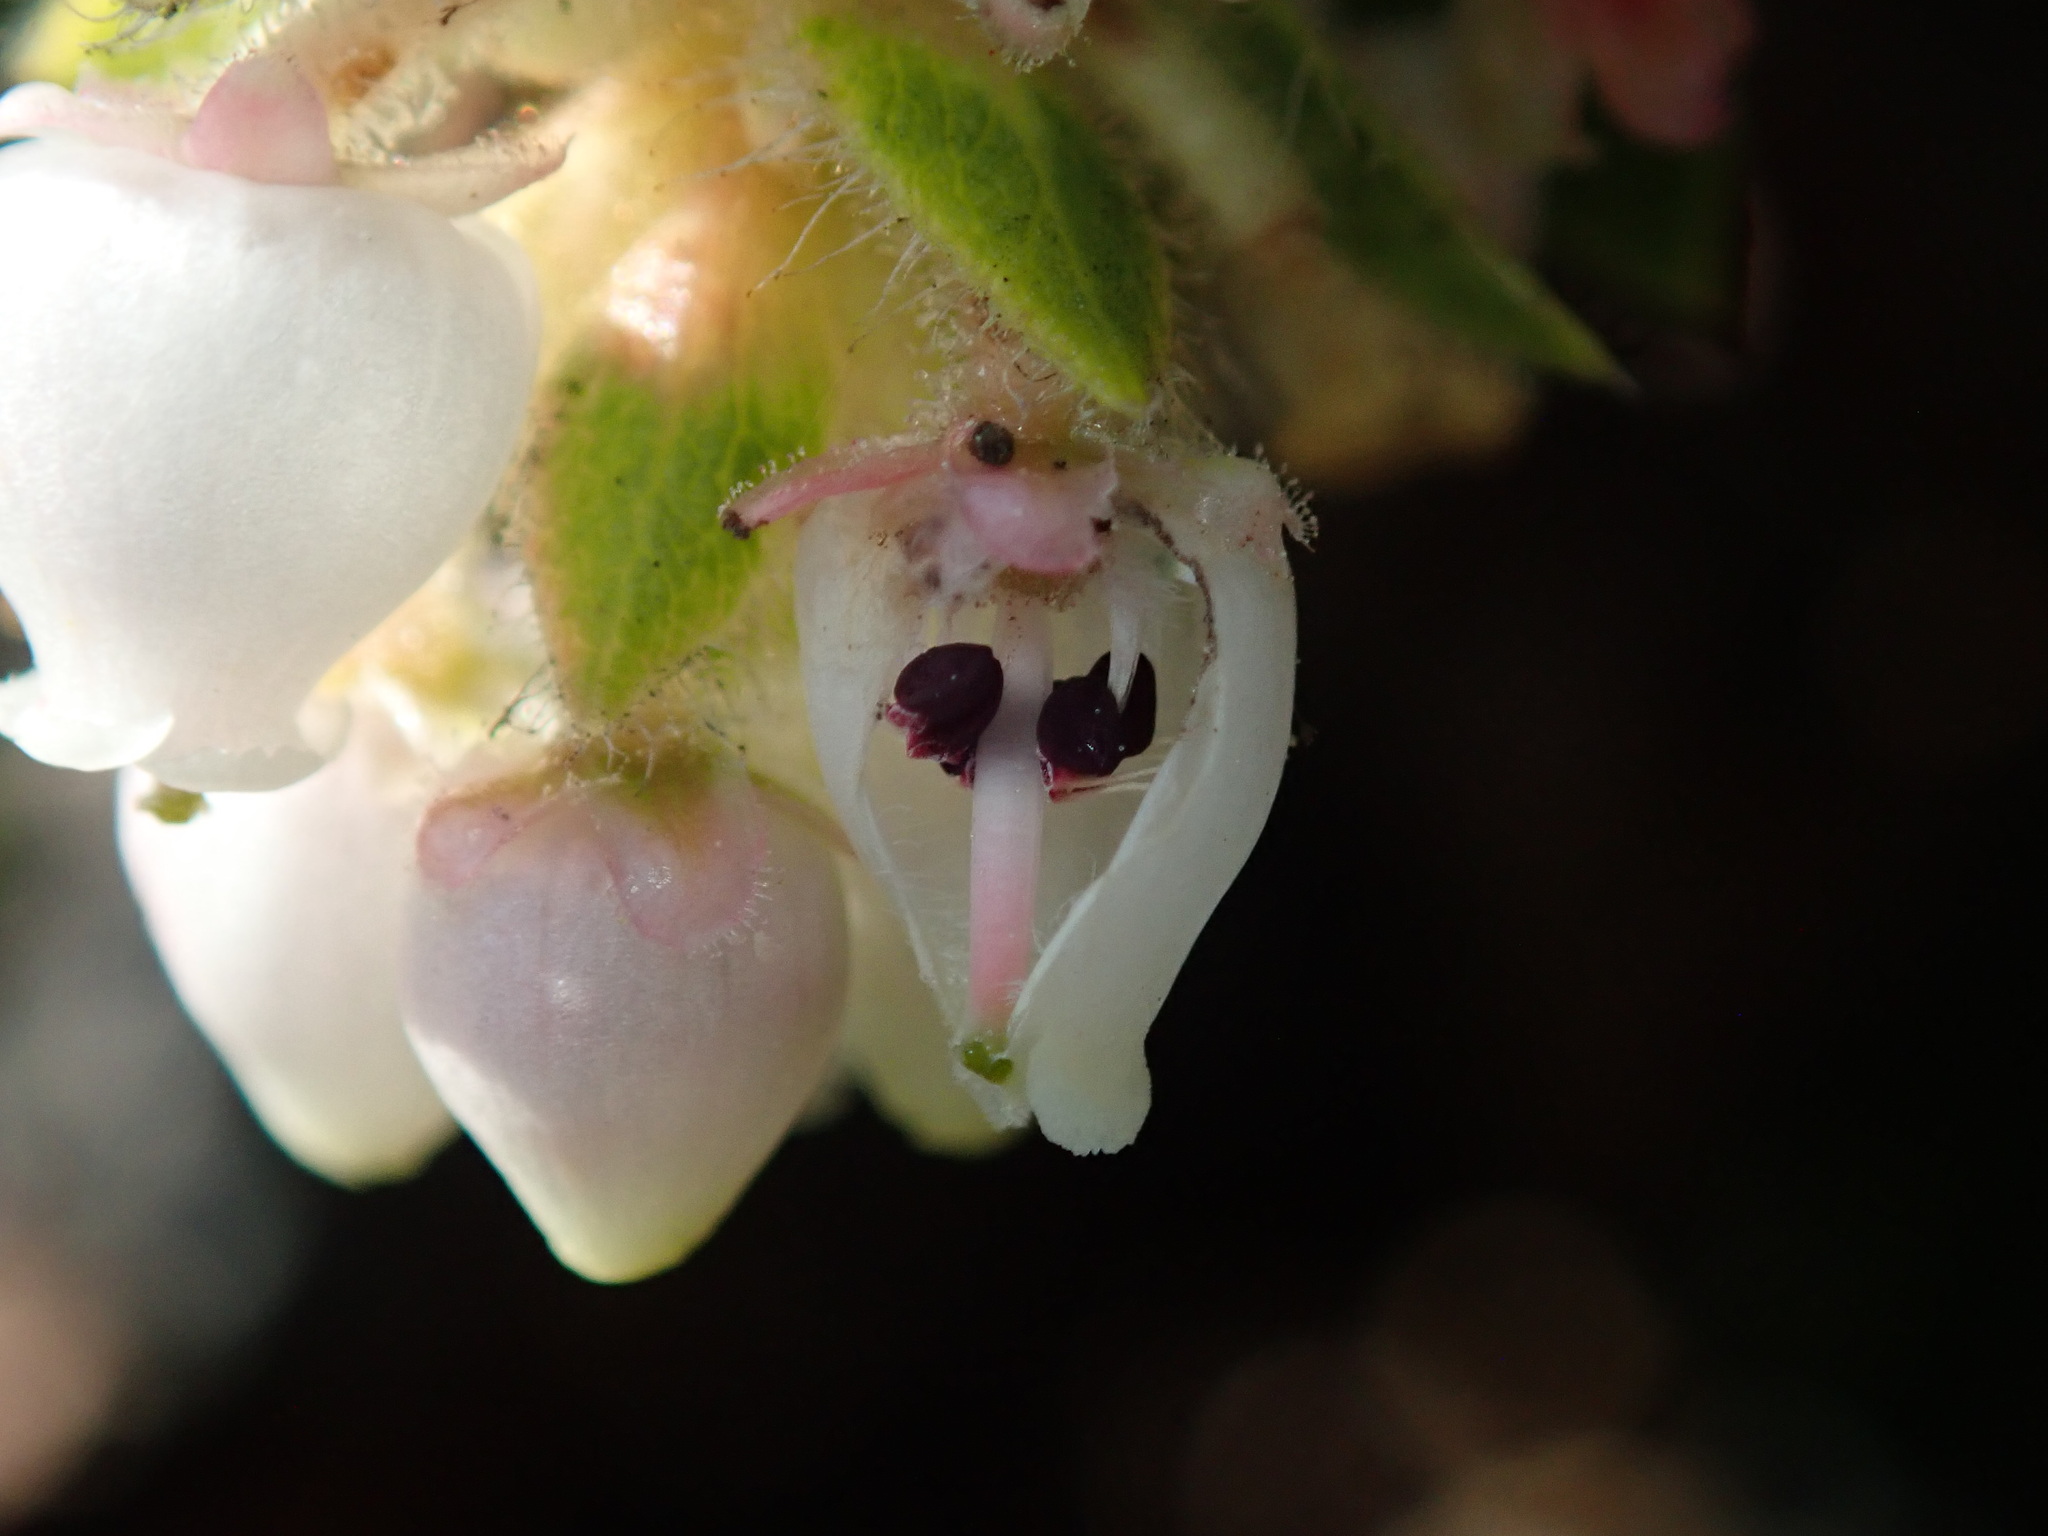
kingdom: Plantae
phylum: Tracheophyta
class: Magnoliopsida
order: Ericales
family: Ericaceae
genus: Arctostaphylos
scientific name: Arctostaphylos imbricata
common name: San bruno mountain manzanita
